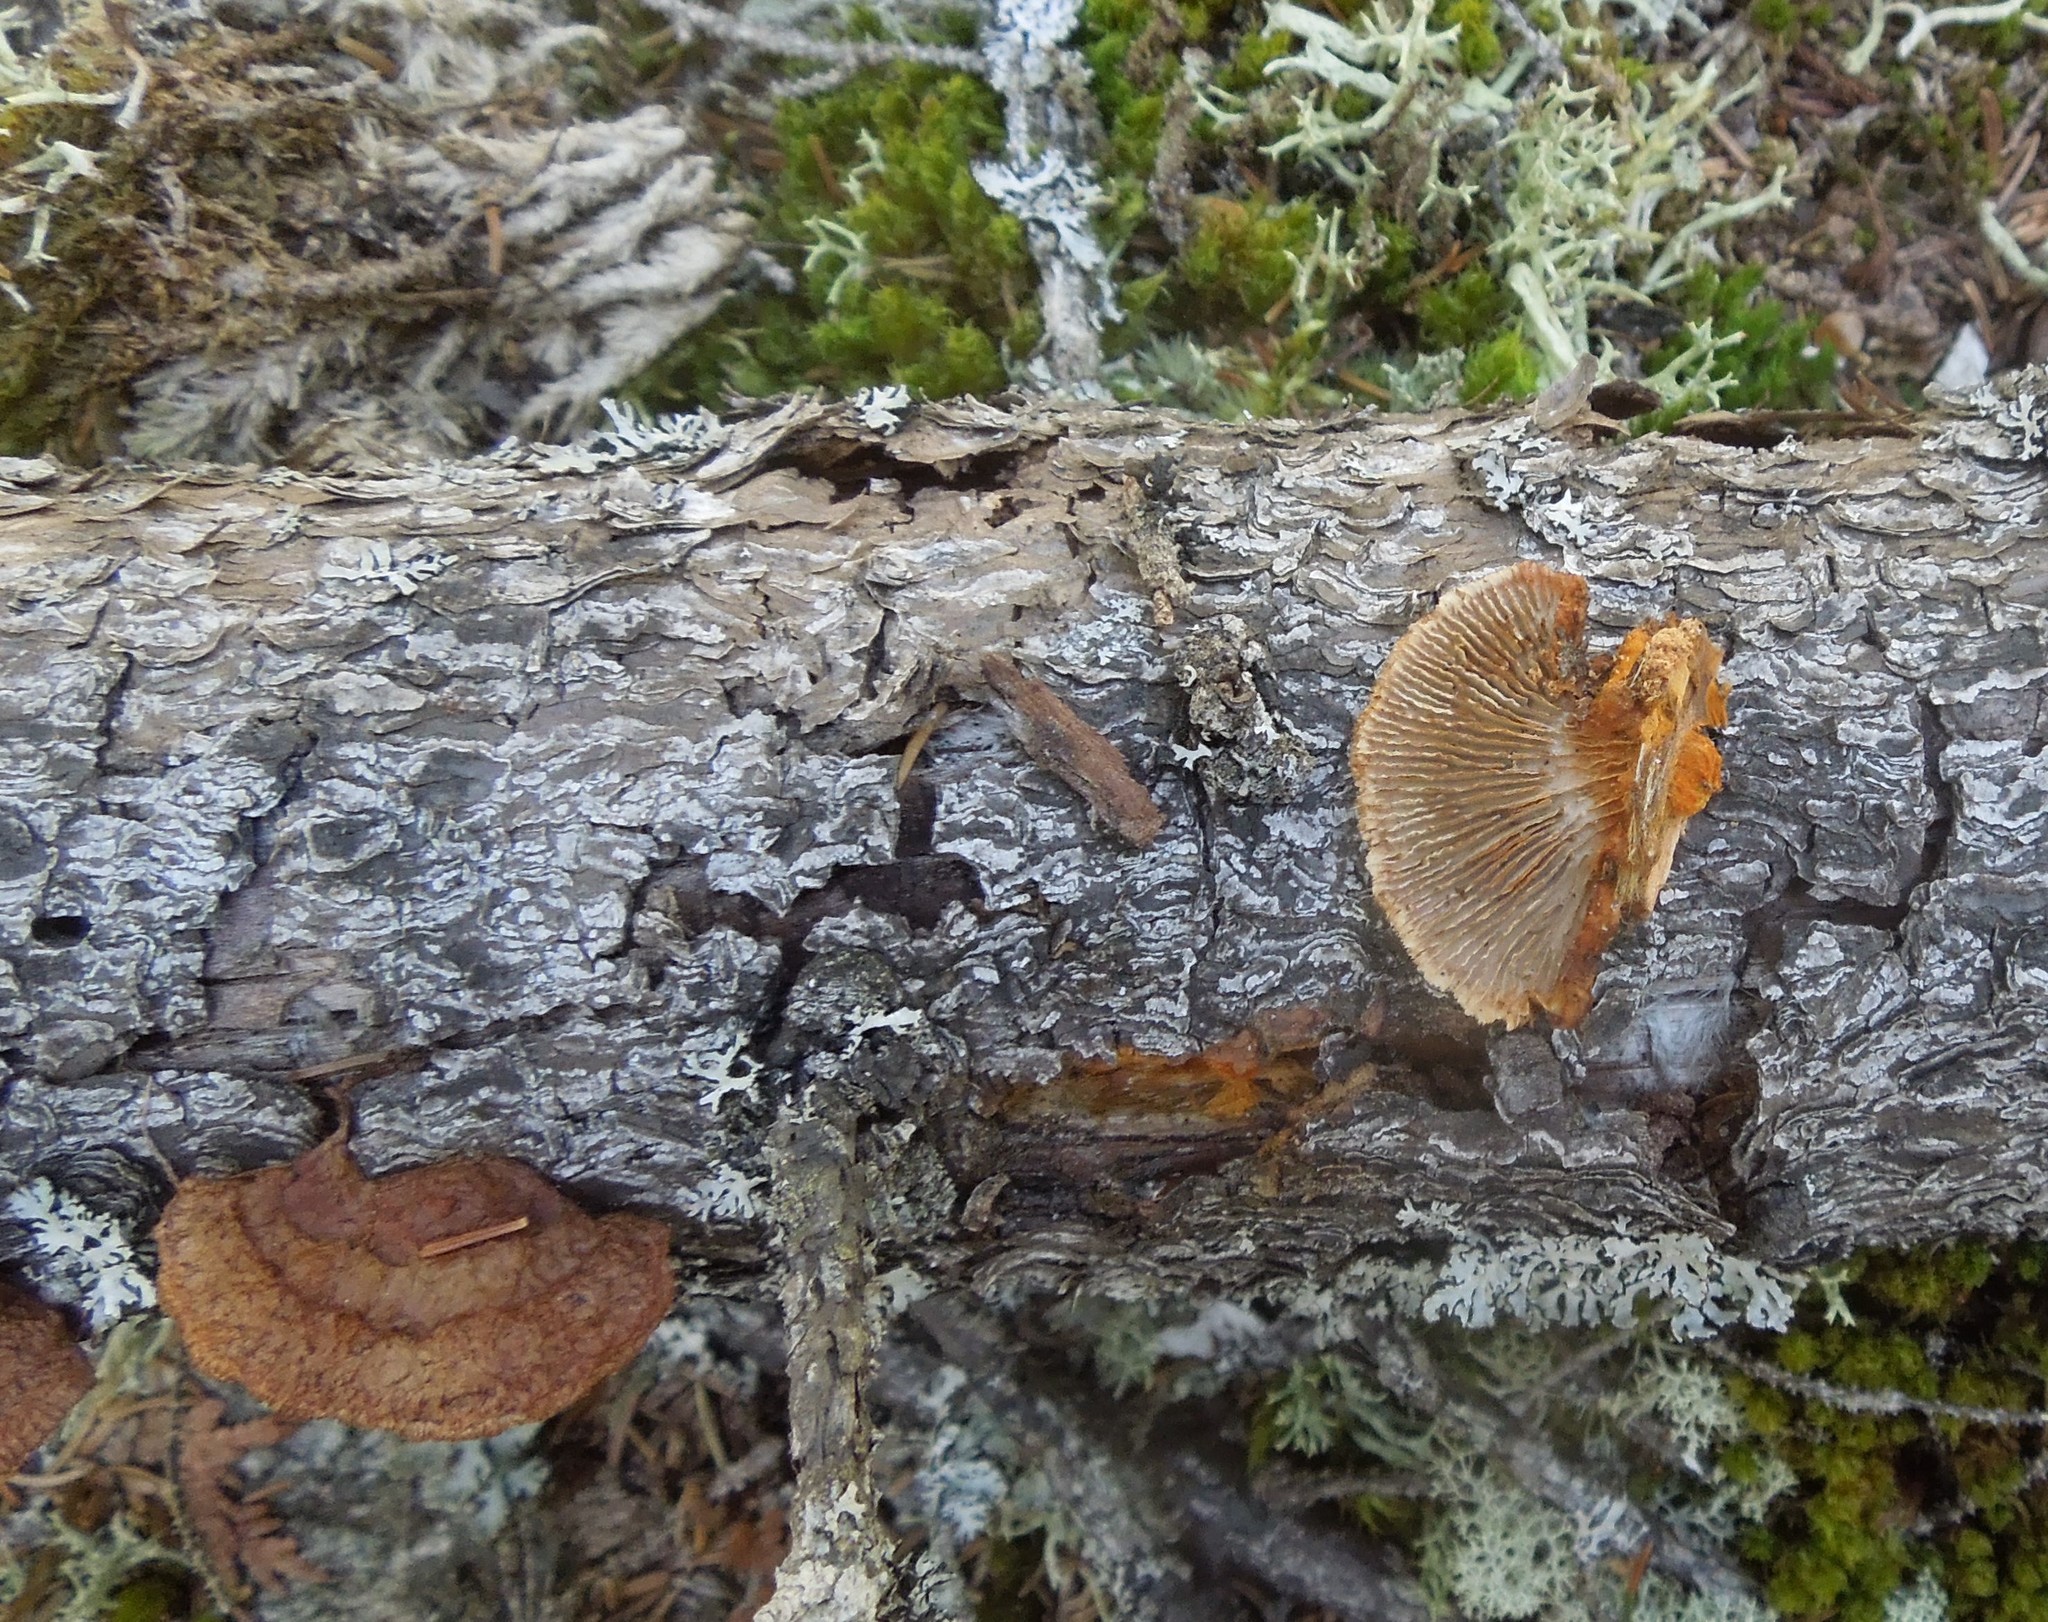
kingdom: Fungi
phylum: Basidiomycota
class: Agaricomycetes
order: Gloeophyllales
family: Gloeophyllaceae
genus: Gloeophyllum
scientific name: Gloeophyllum sepiarium
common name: Conifer mazegill
